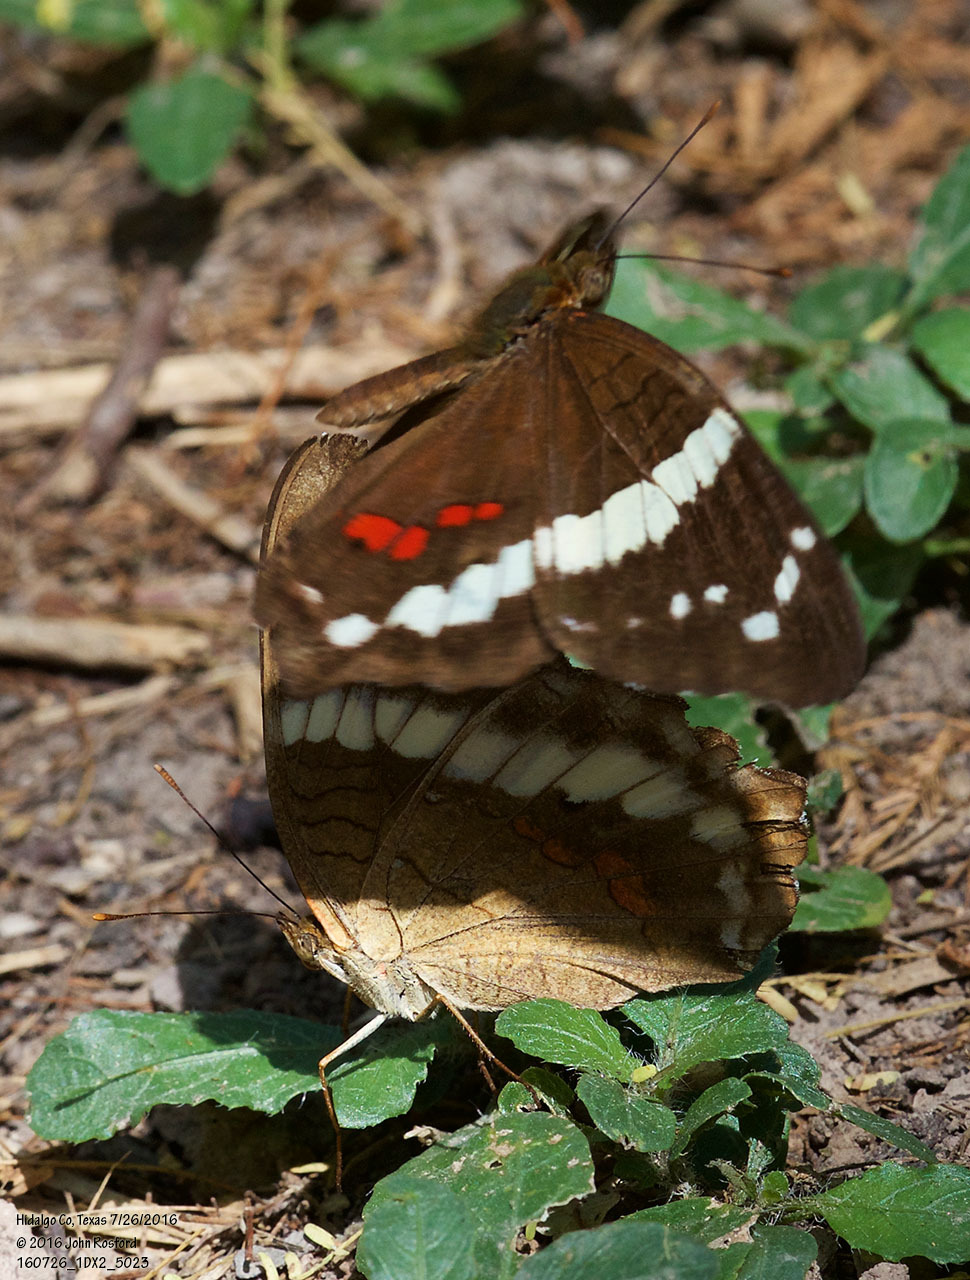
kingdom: Animalia
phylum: Arthropoda
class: Insecta
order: Lepidoptera
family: Nymphalidae
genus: Anartia
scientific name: Anartia fatima
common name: Banded peacock
